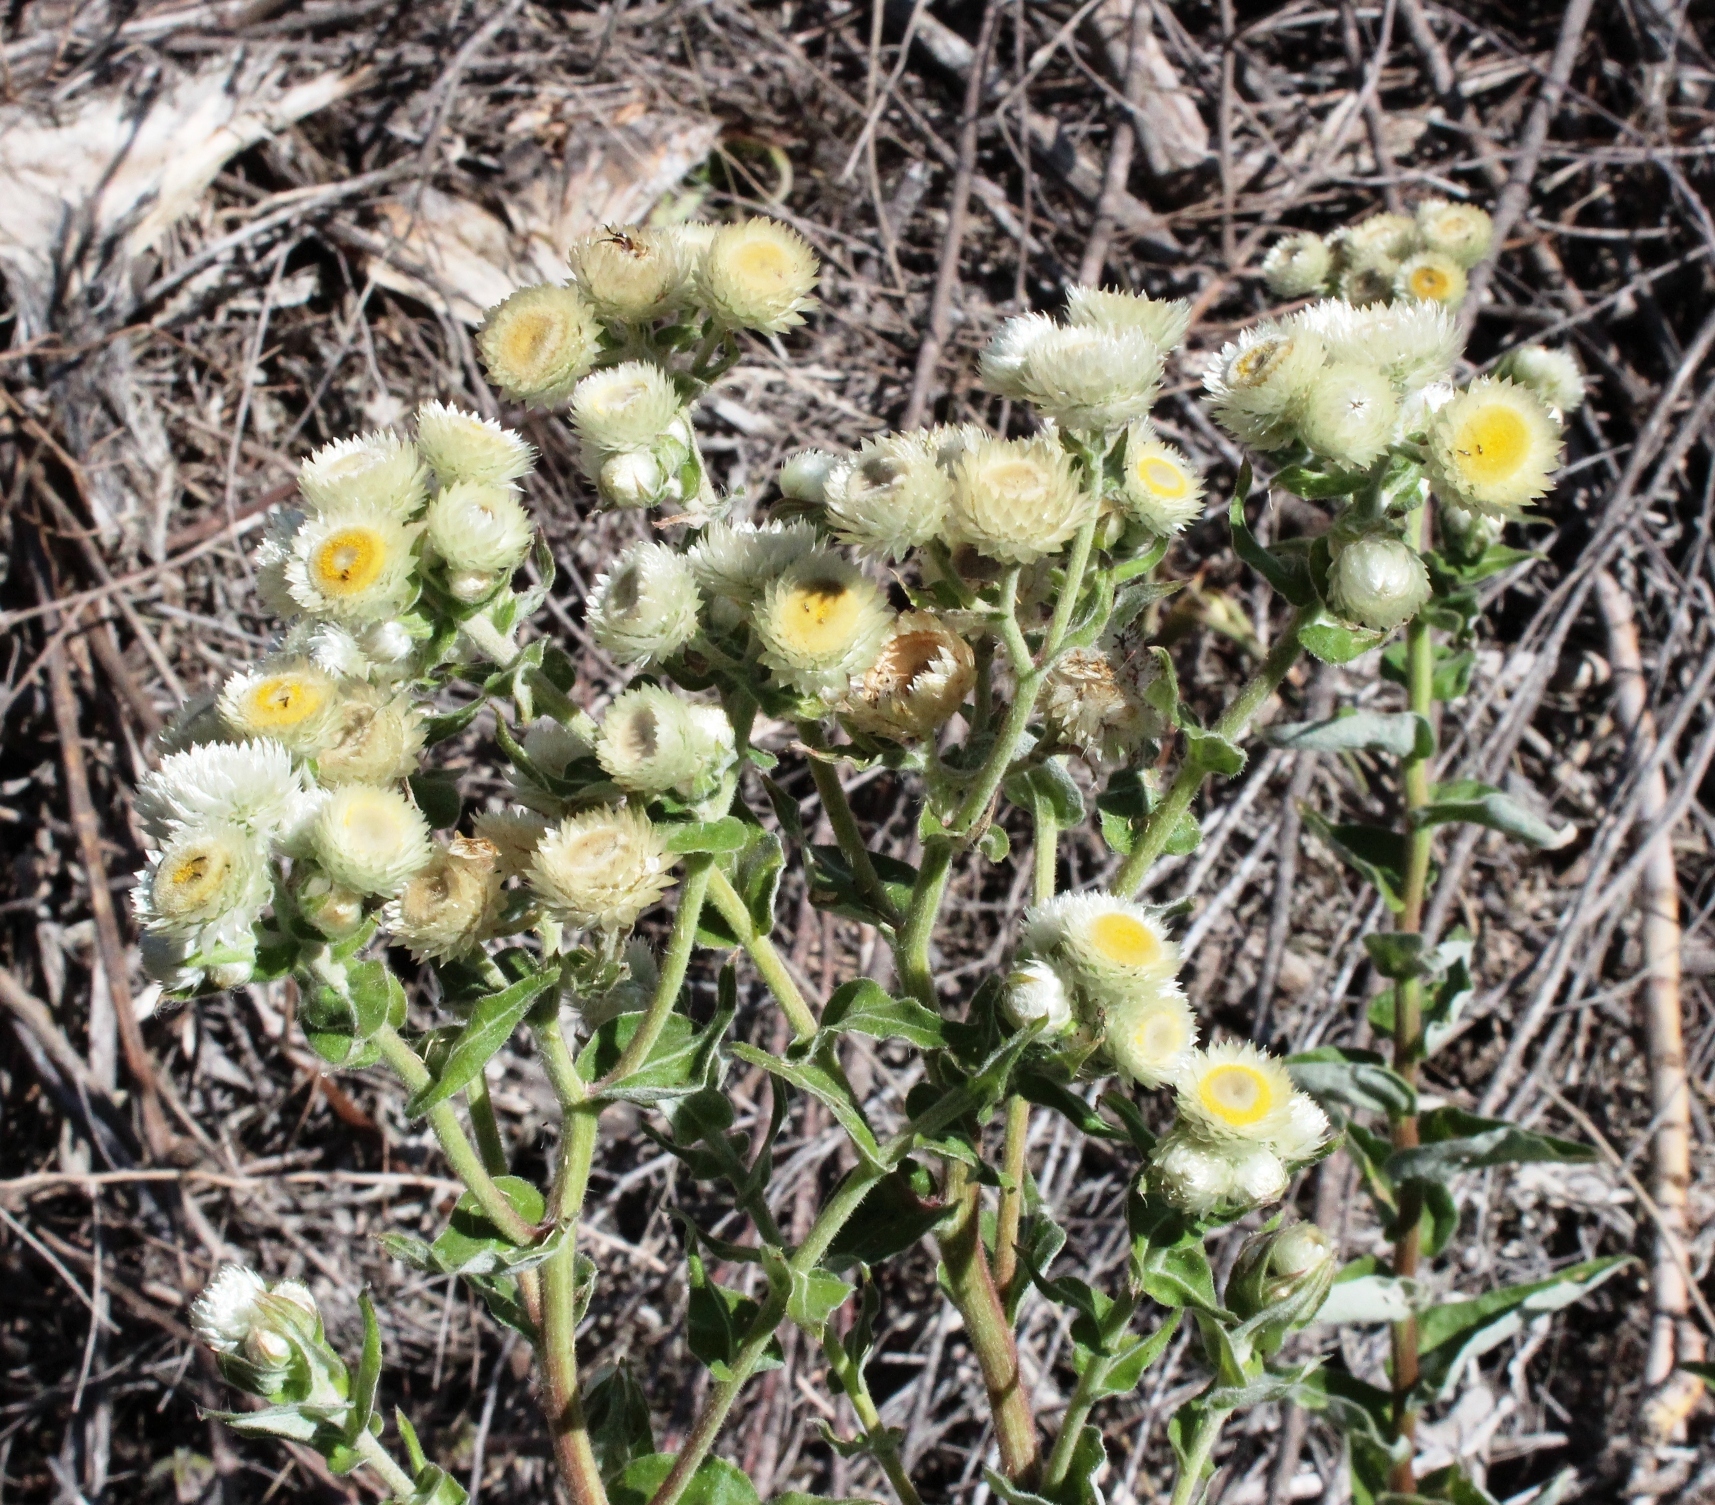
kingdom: Plantae
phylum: Tracheophyta
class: Magnoliopsida
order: Asterales
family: Asteraceae
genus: Helichrysum
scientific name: Helichrysum foetidum
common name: Stinking everlasting
